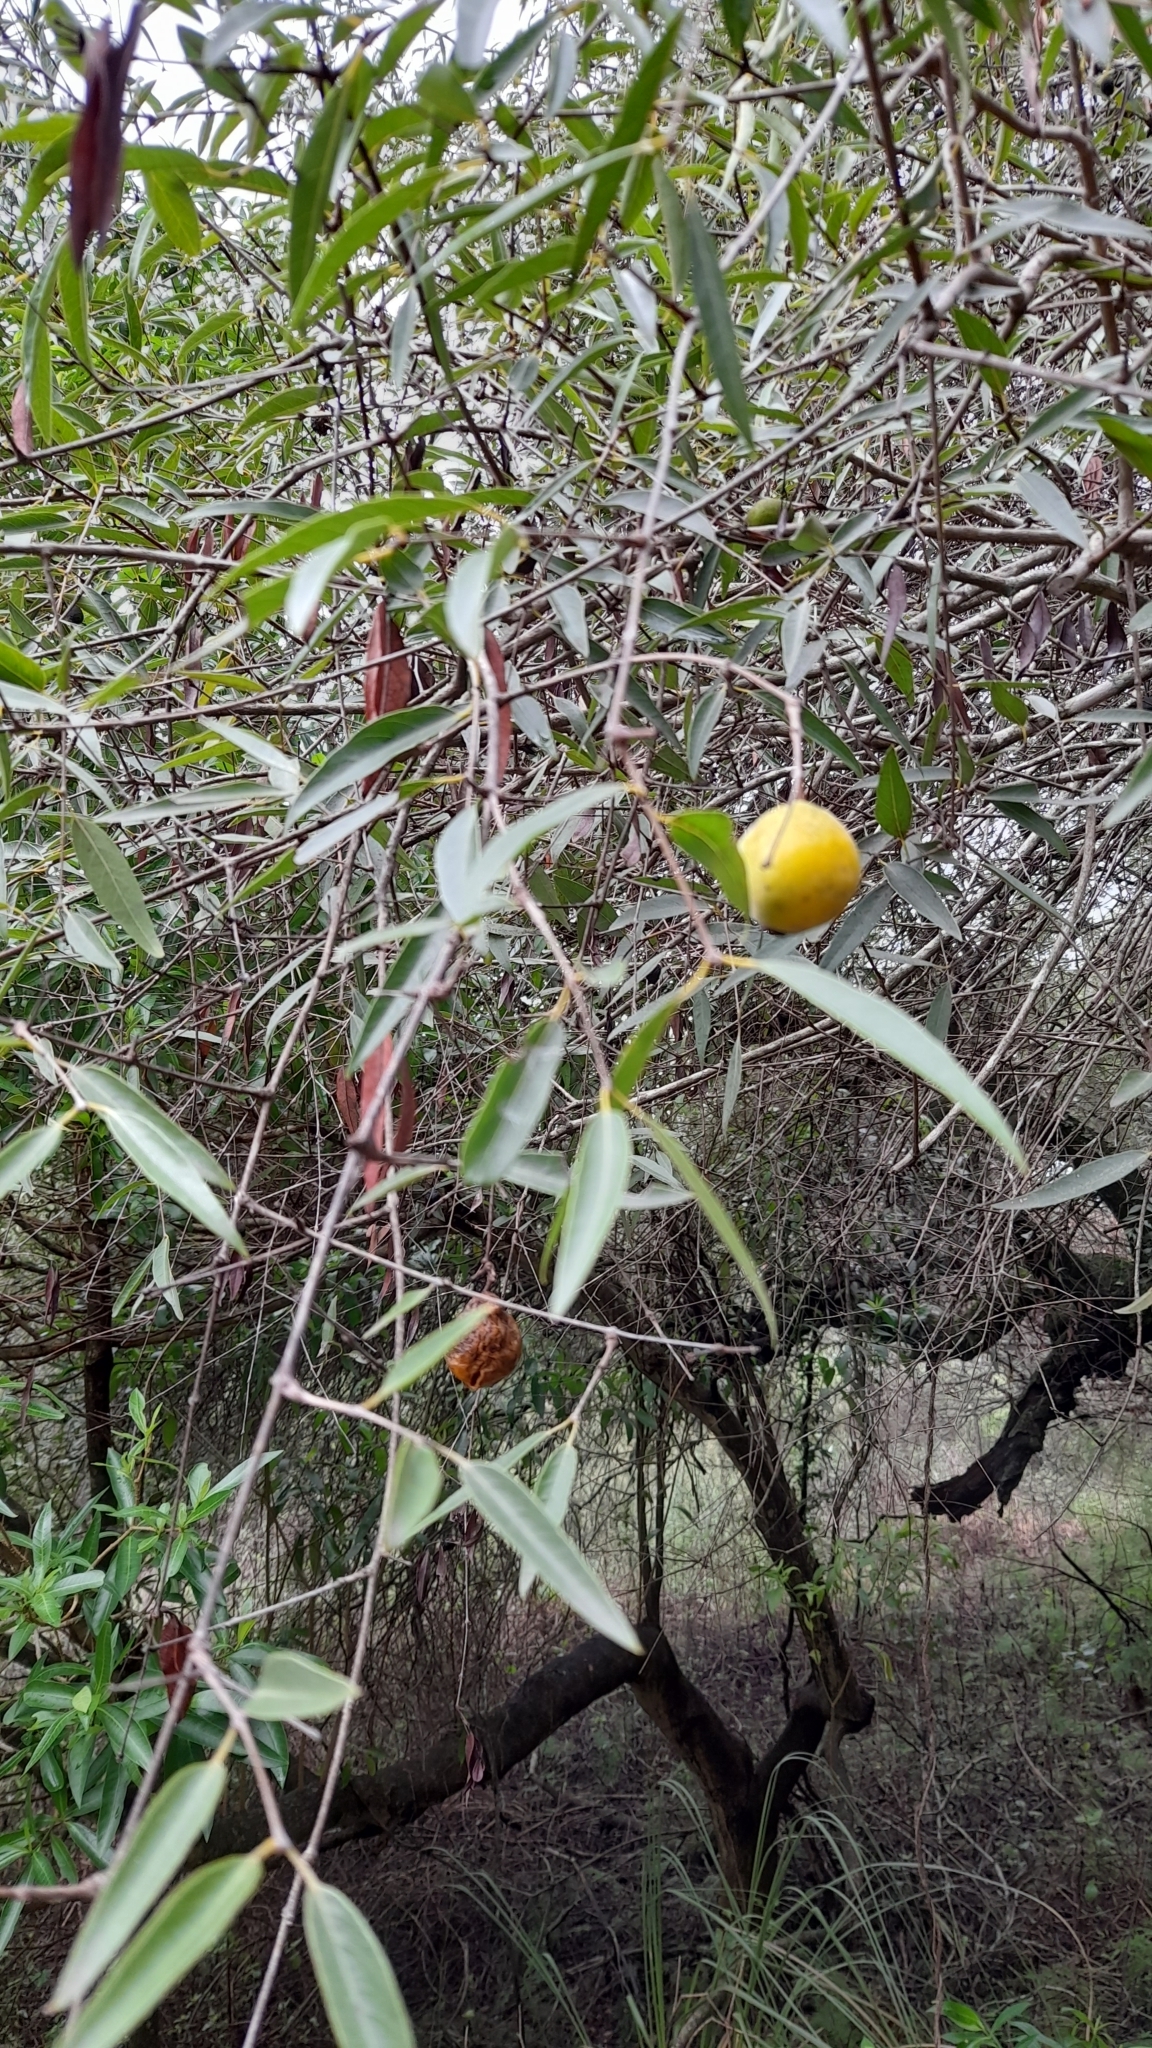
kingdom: Plantae
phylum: Tracheophyta
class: Magnoliopsida
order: Myrtales
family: Myrtaceae
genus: Eugenia
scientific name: Eugenia myrcianthes
